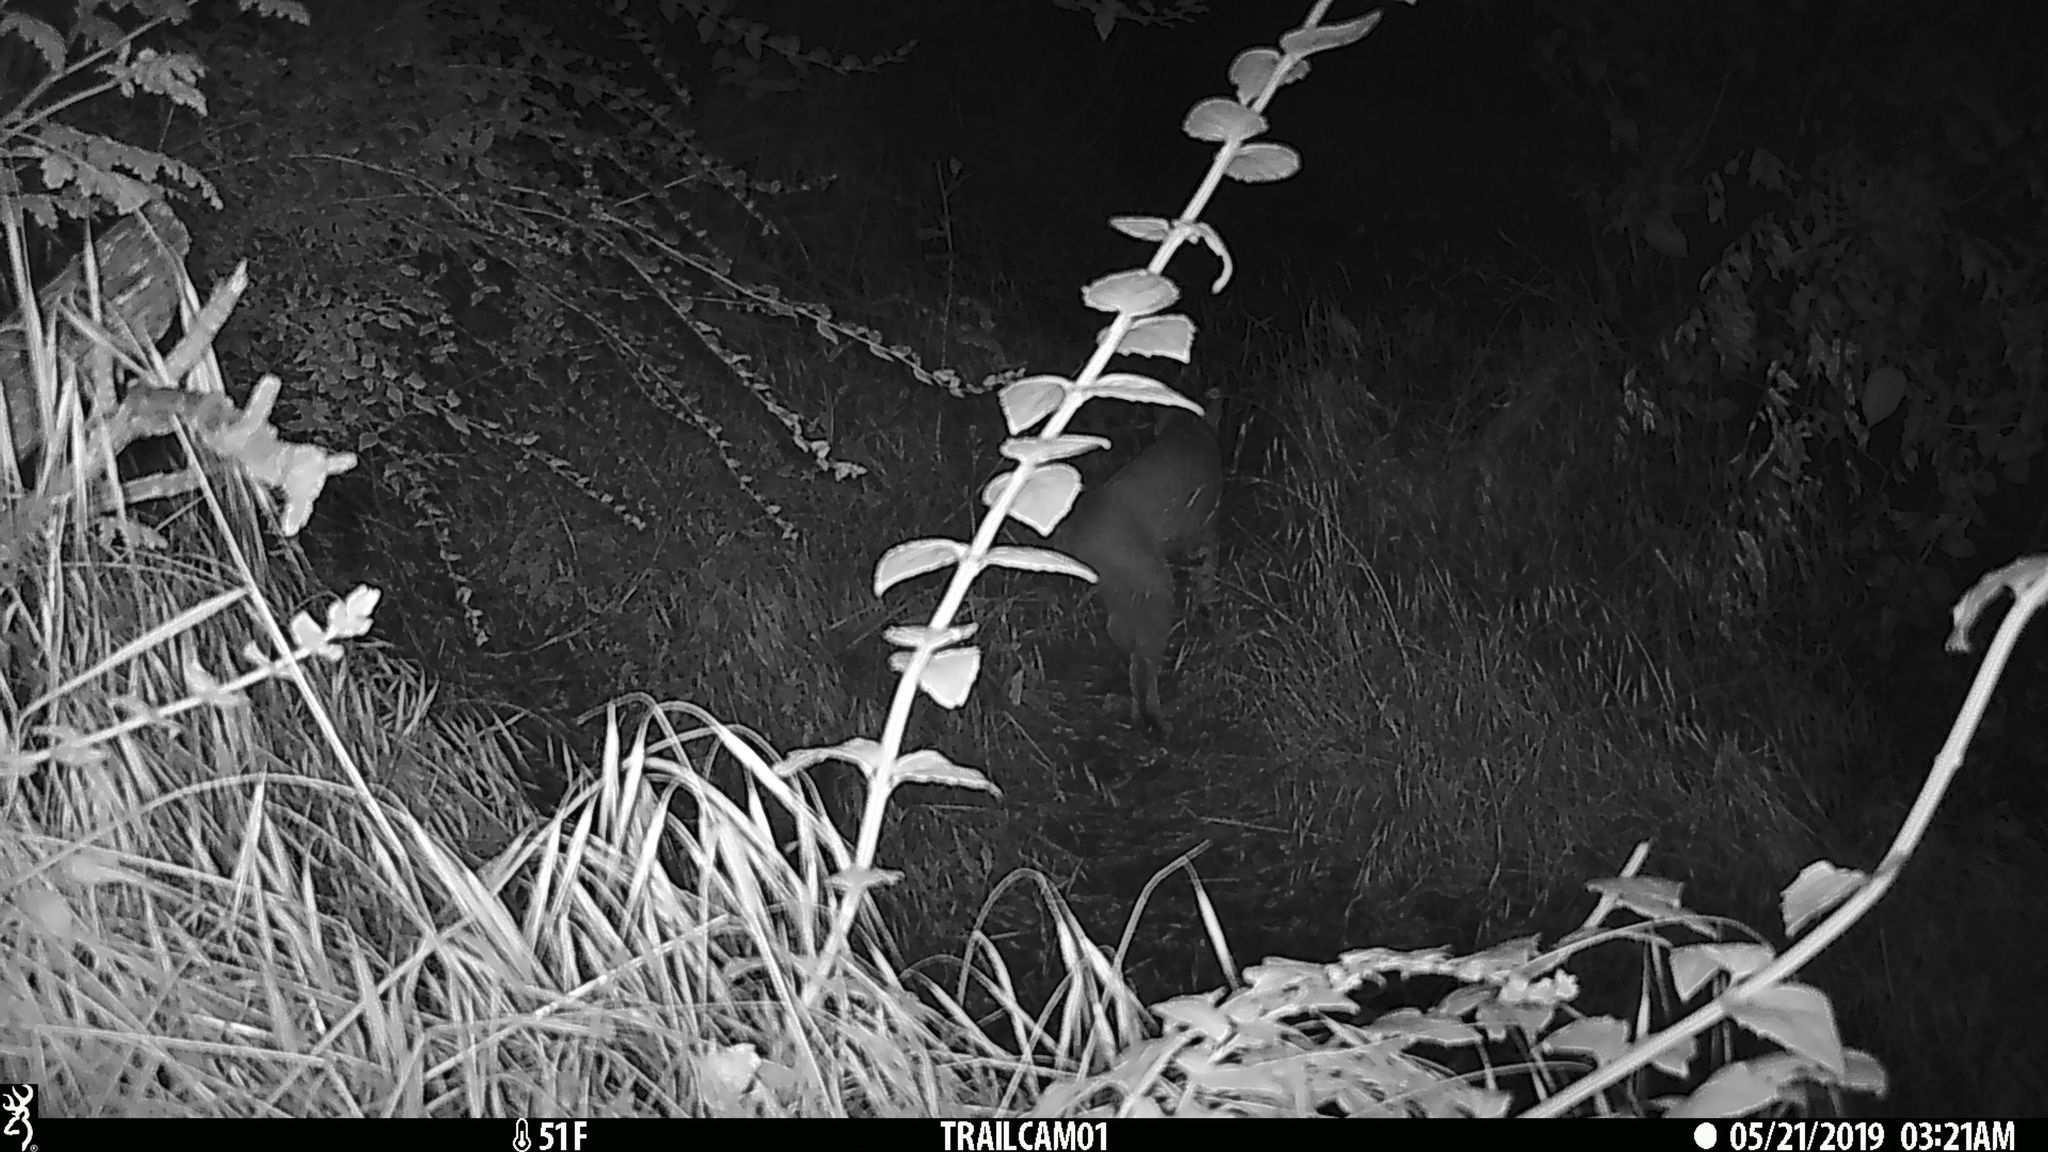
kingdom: Animalia
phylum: Chordata
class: Mammalia
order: Carnivora
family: Felidae
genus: Lynx
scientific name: Lynx rufus
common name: Bobcat
